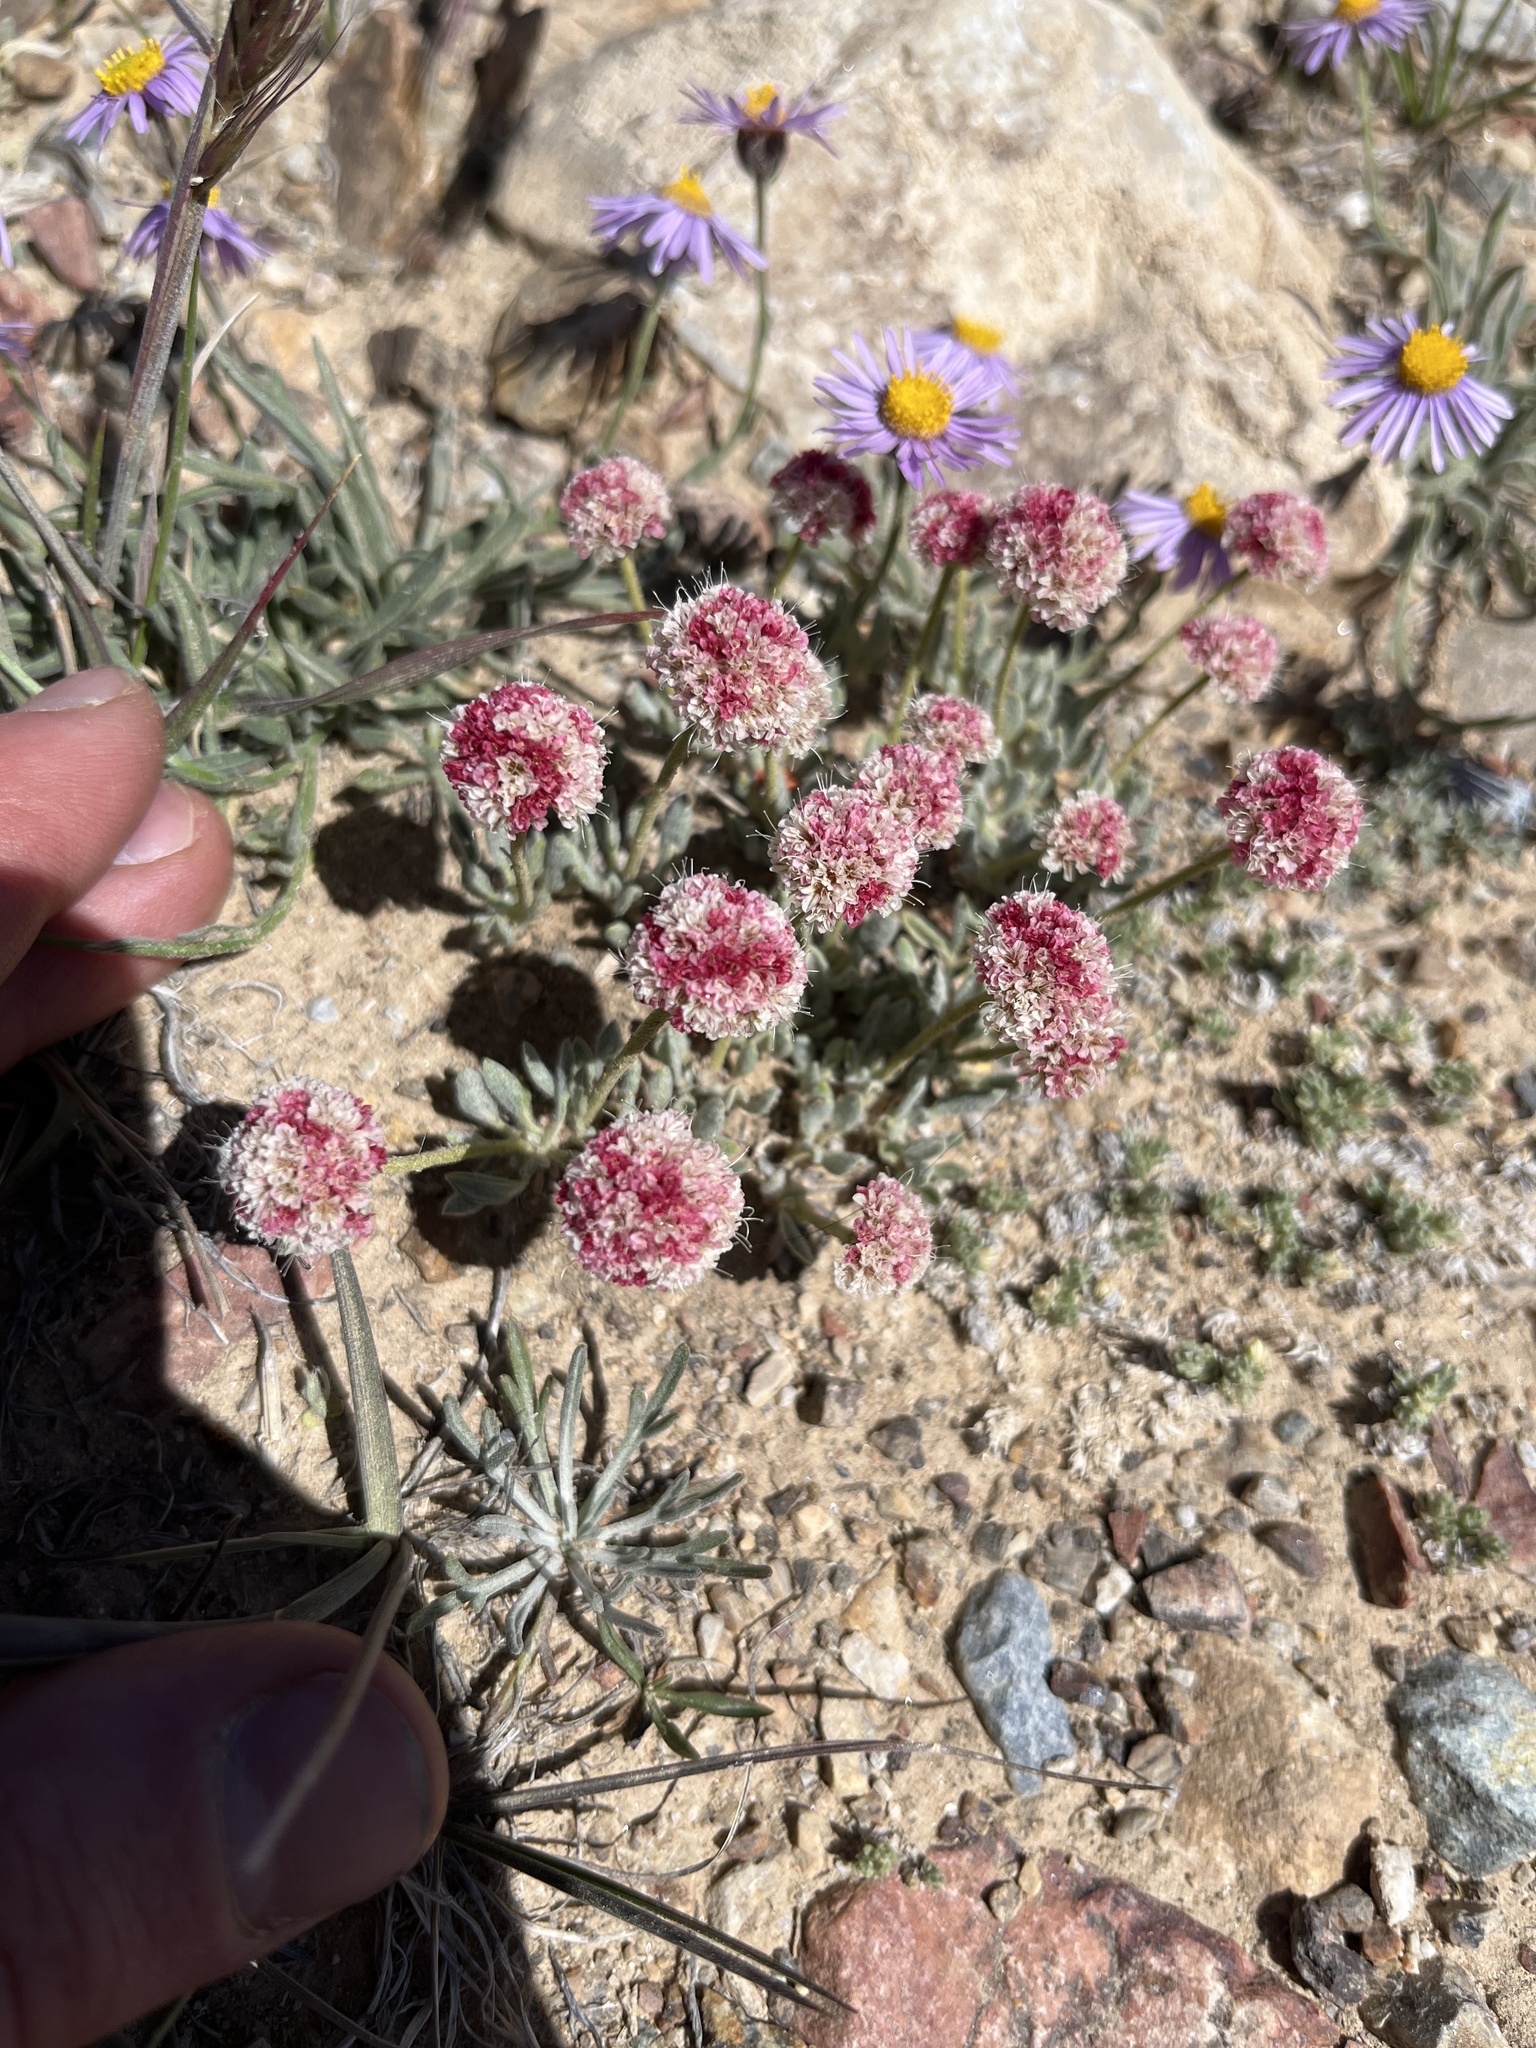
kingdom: Plantae
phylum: Tracheophyta
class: Magnoliopsida
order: Caryophyllales
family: Polygonaceae
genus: Eriogonum
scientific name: Eriogonum gracilipes
